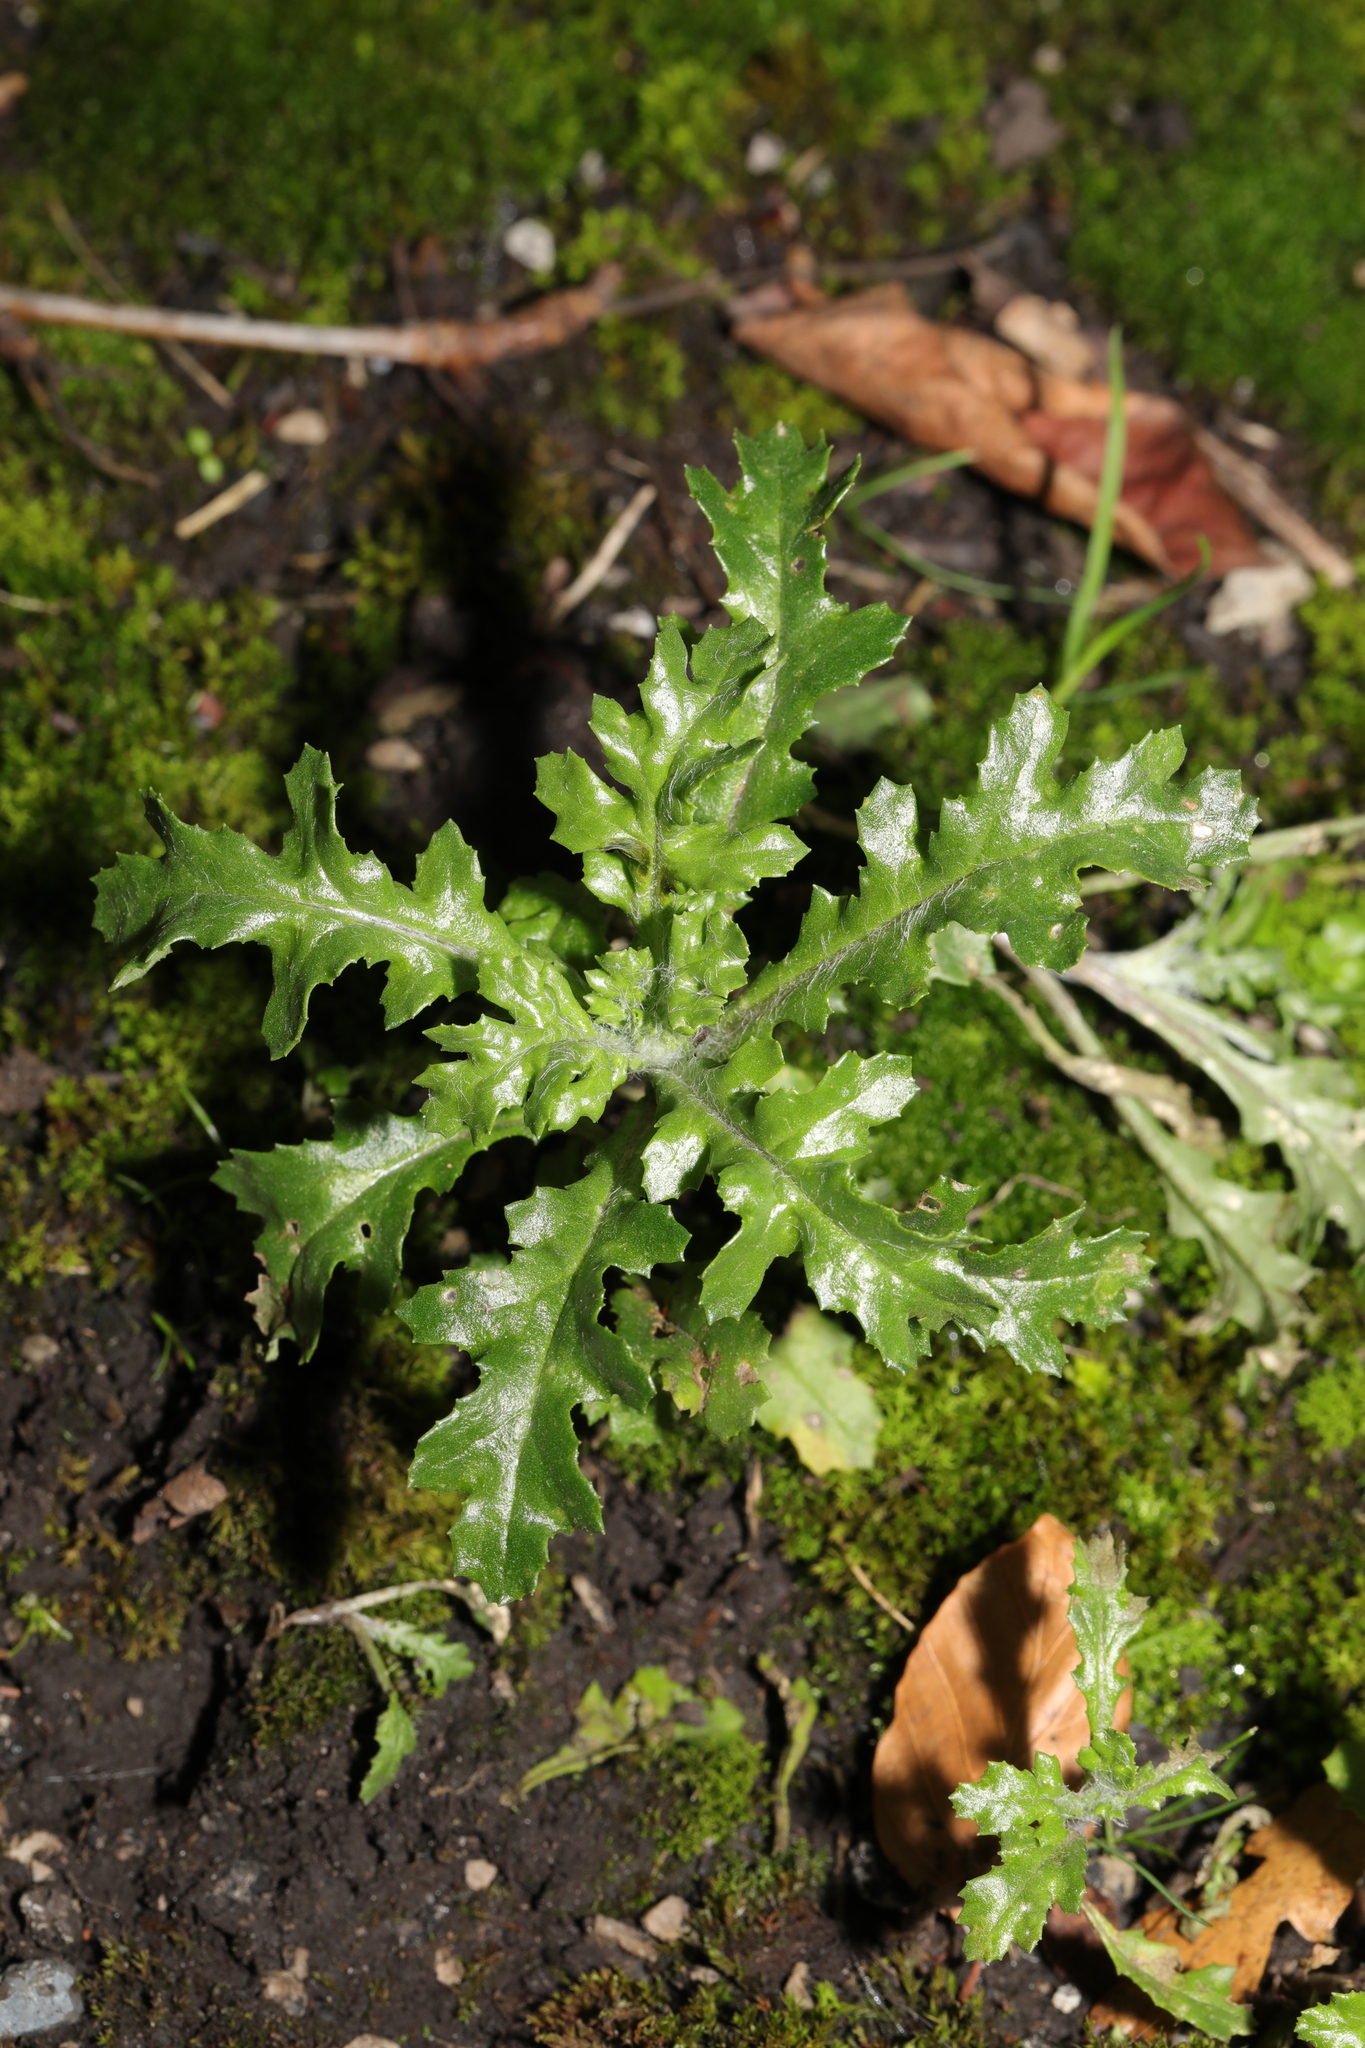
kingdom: Plantae
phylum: Tracheophyta
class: Magnoliopsida
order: Asterales
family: Asteraceae
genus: Senecio
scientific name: Senecio vulgaris
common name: Old-man-in-the-spring
